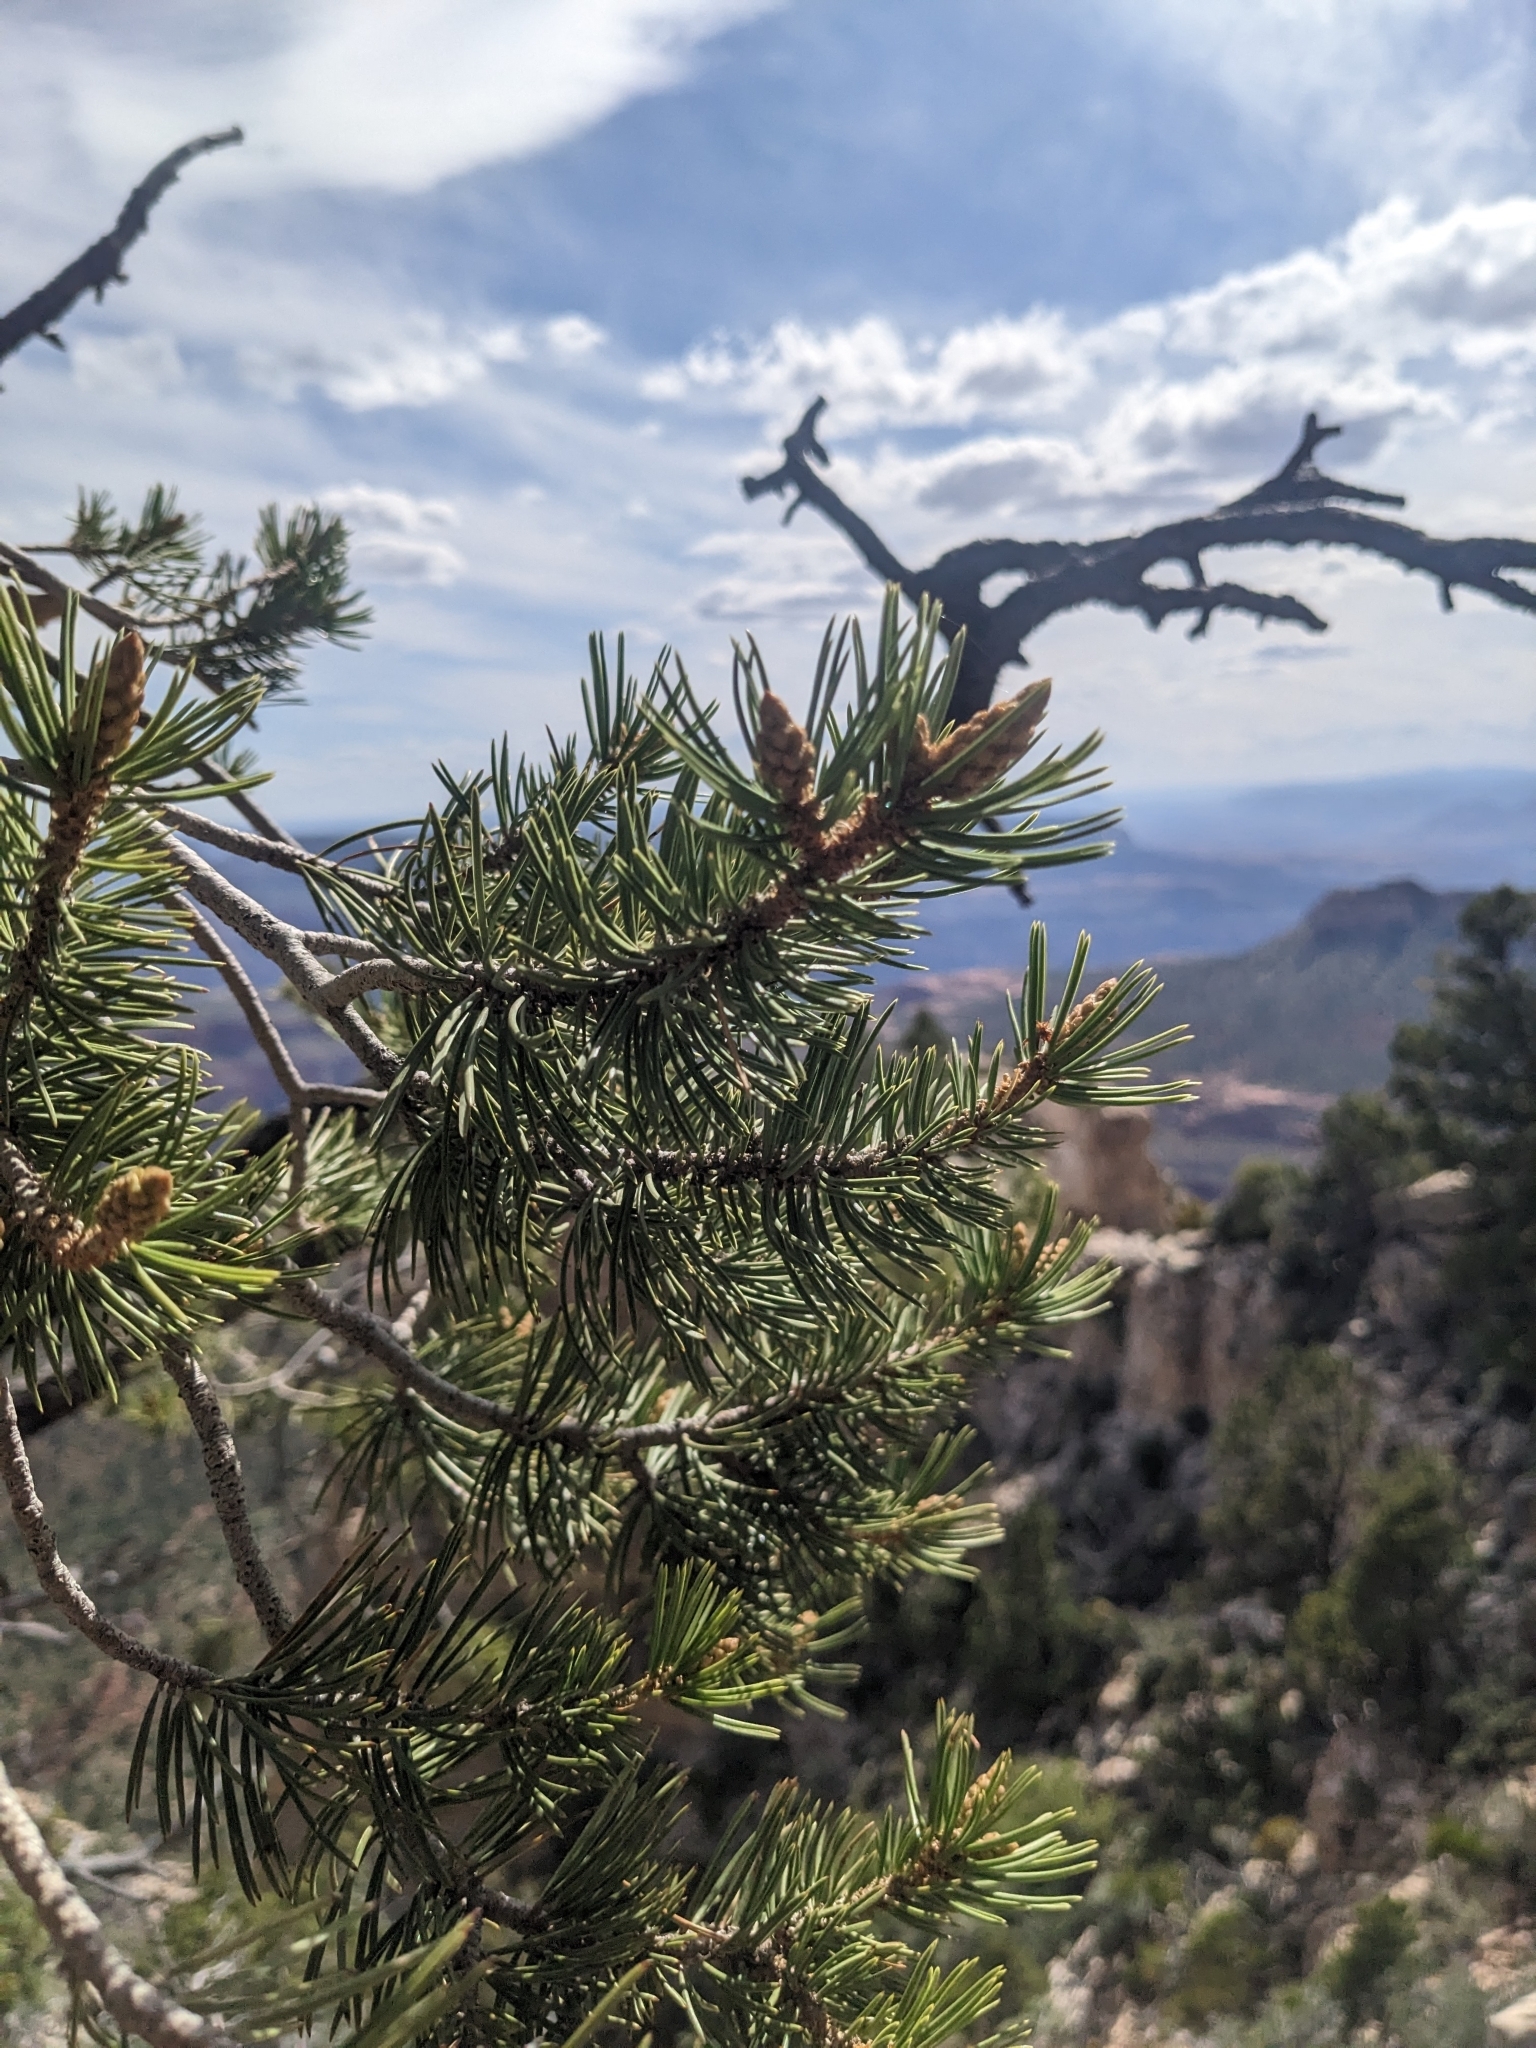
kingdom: Plantae
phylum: Tracheophyta
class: Pinopsida
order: Pinales
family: Pinaceae
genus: Pinus
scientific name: Pinus edulis
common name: Colorado pinyon
